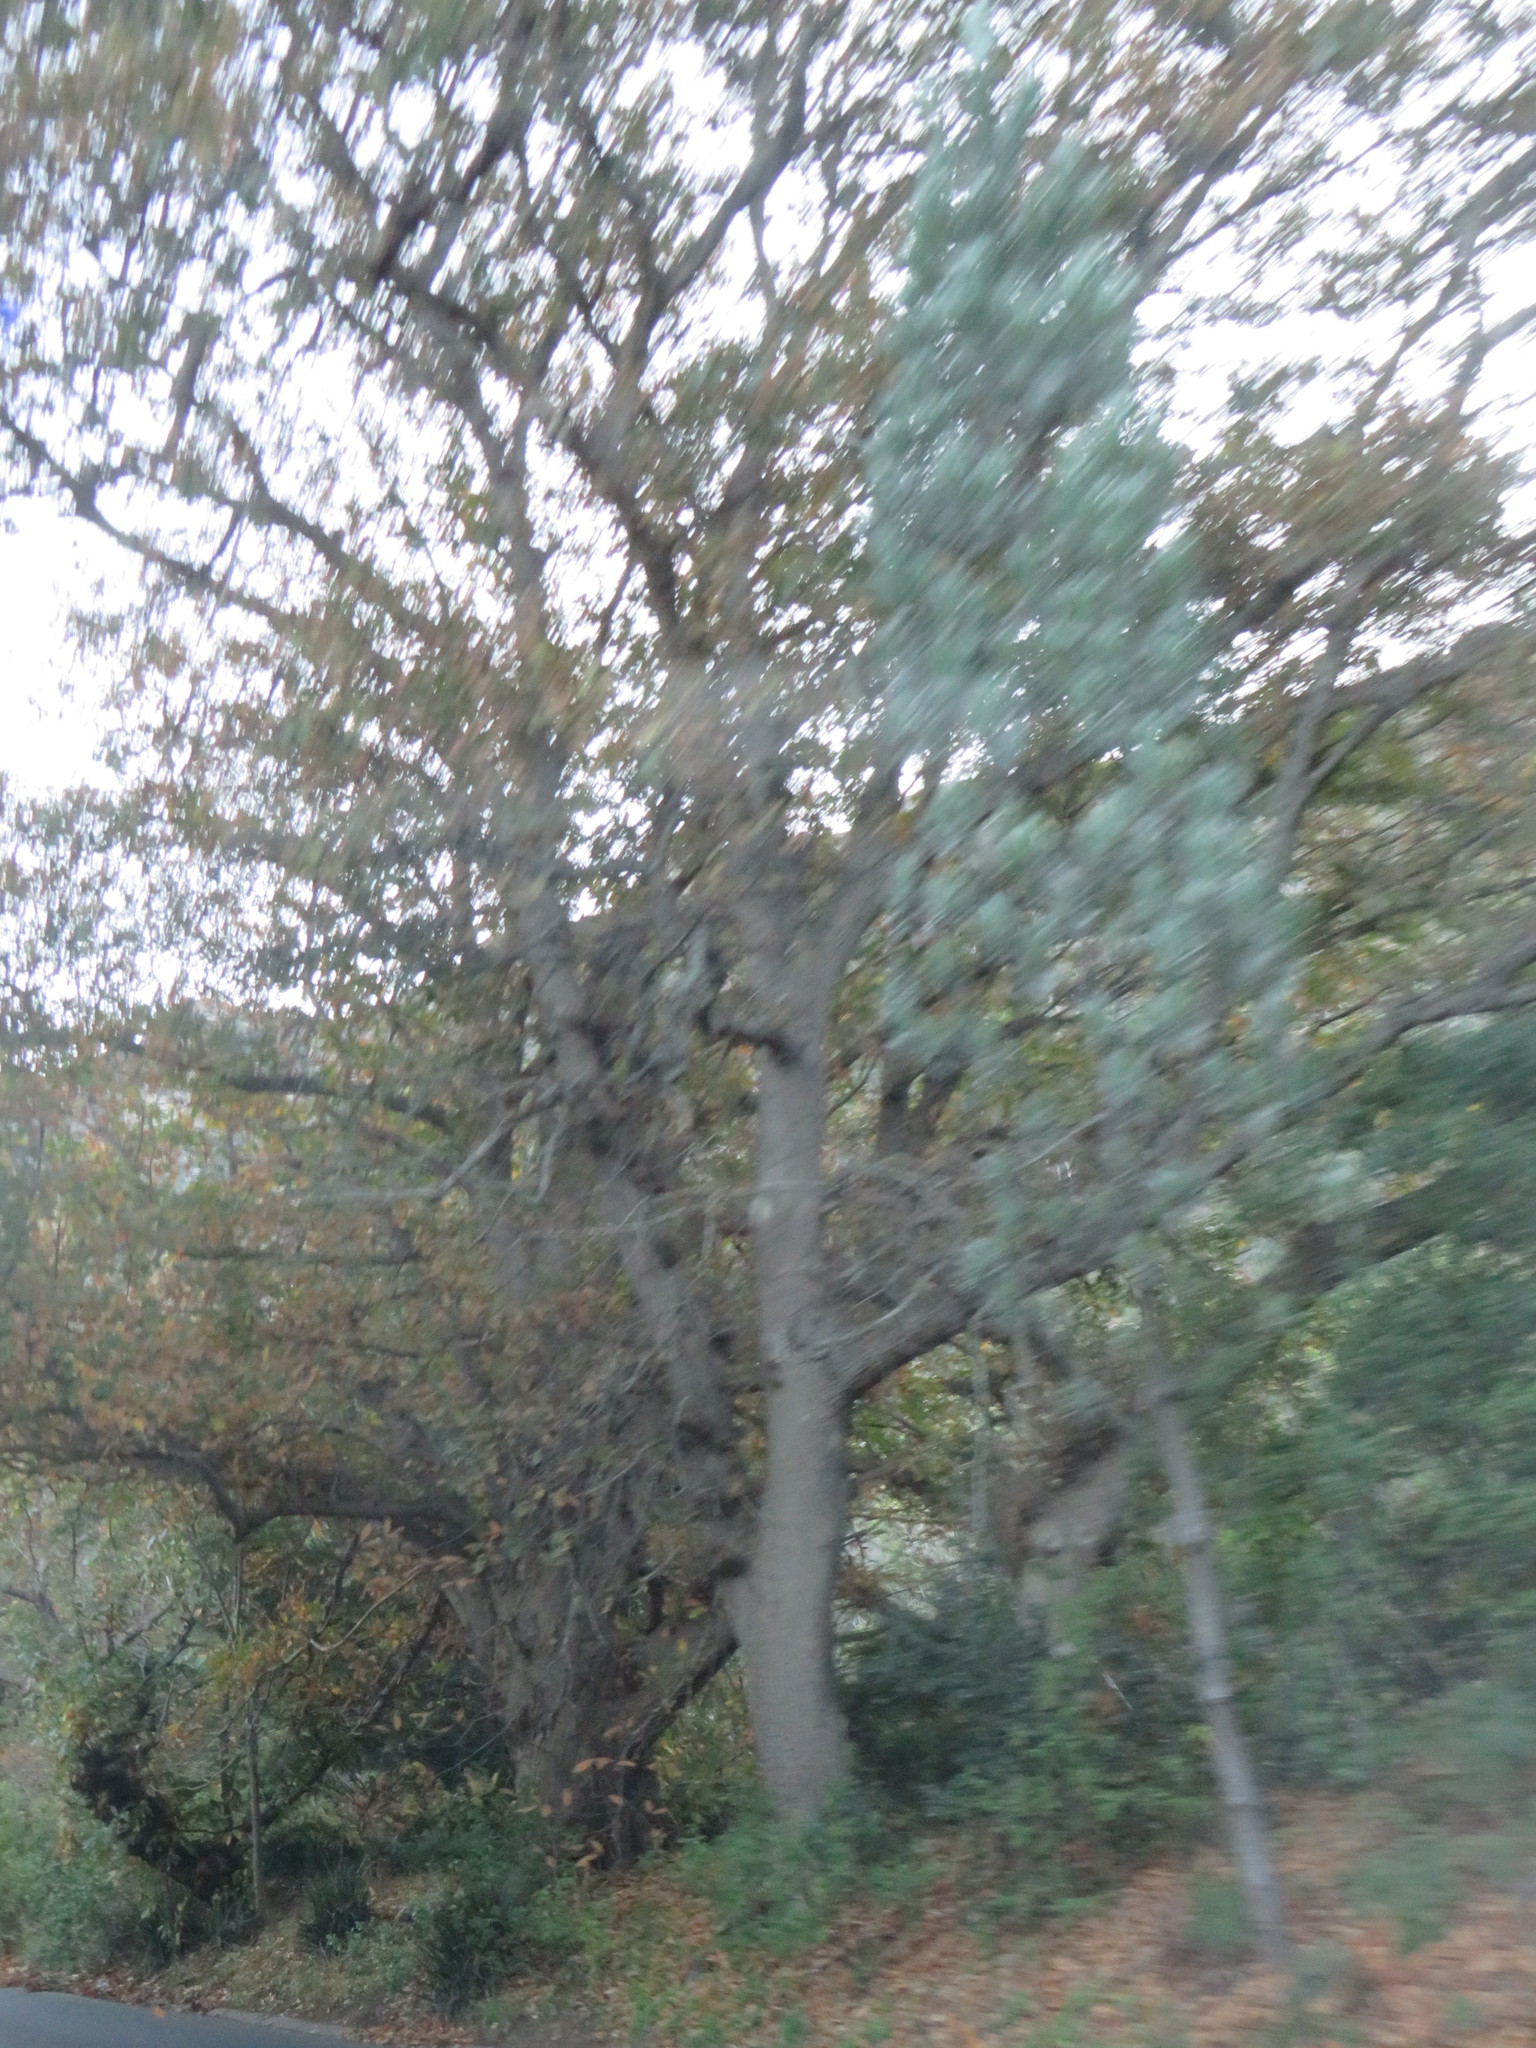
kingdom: Plantae
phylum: Tracheophyta
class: Magnoliopsida
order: Proteales
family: Proteaceae
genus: Leucadendron
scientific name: Leucadendron argenteum
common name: Cape silver tree
